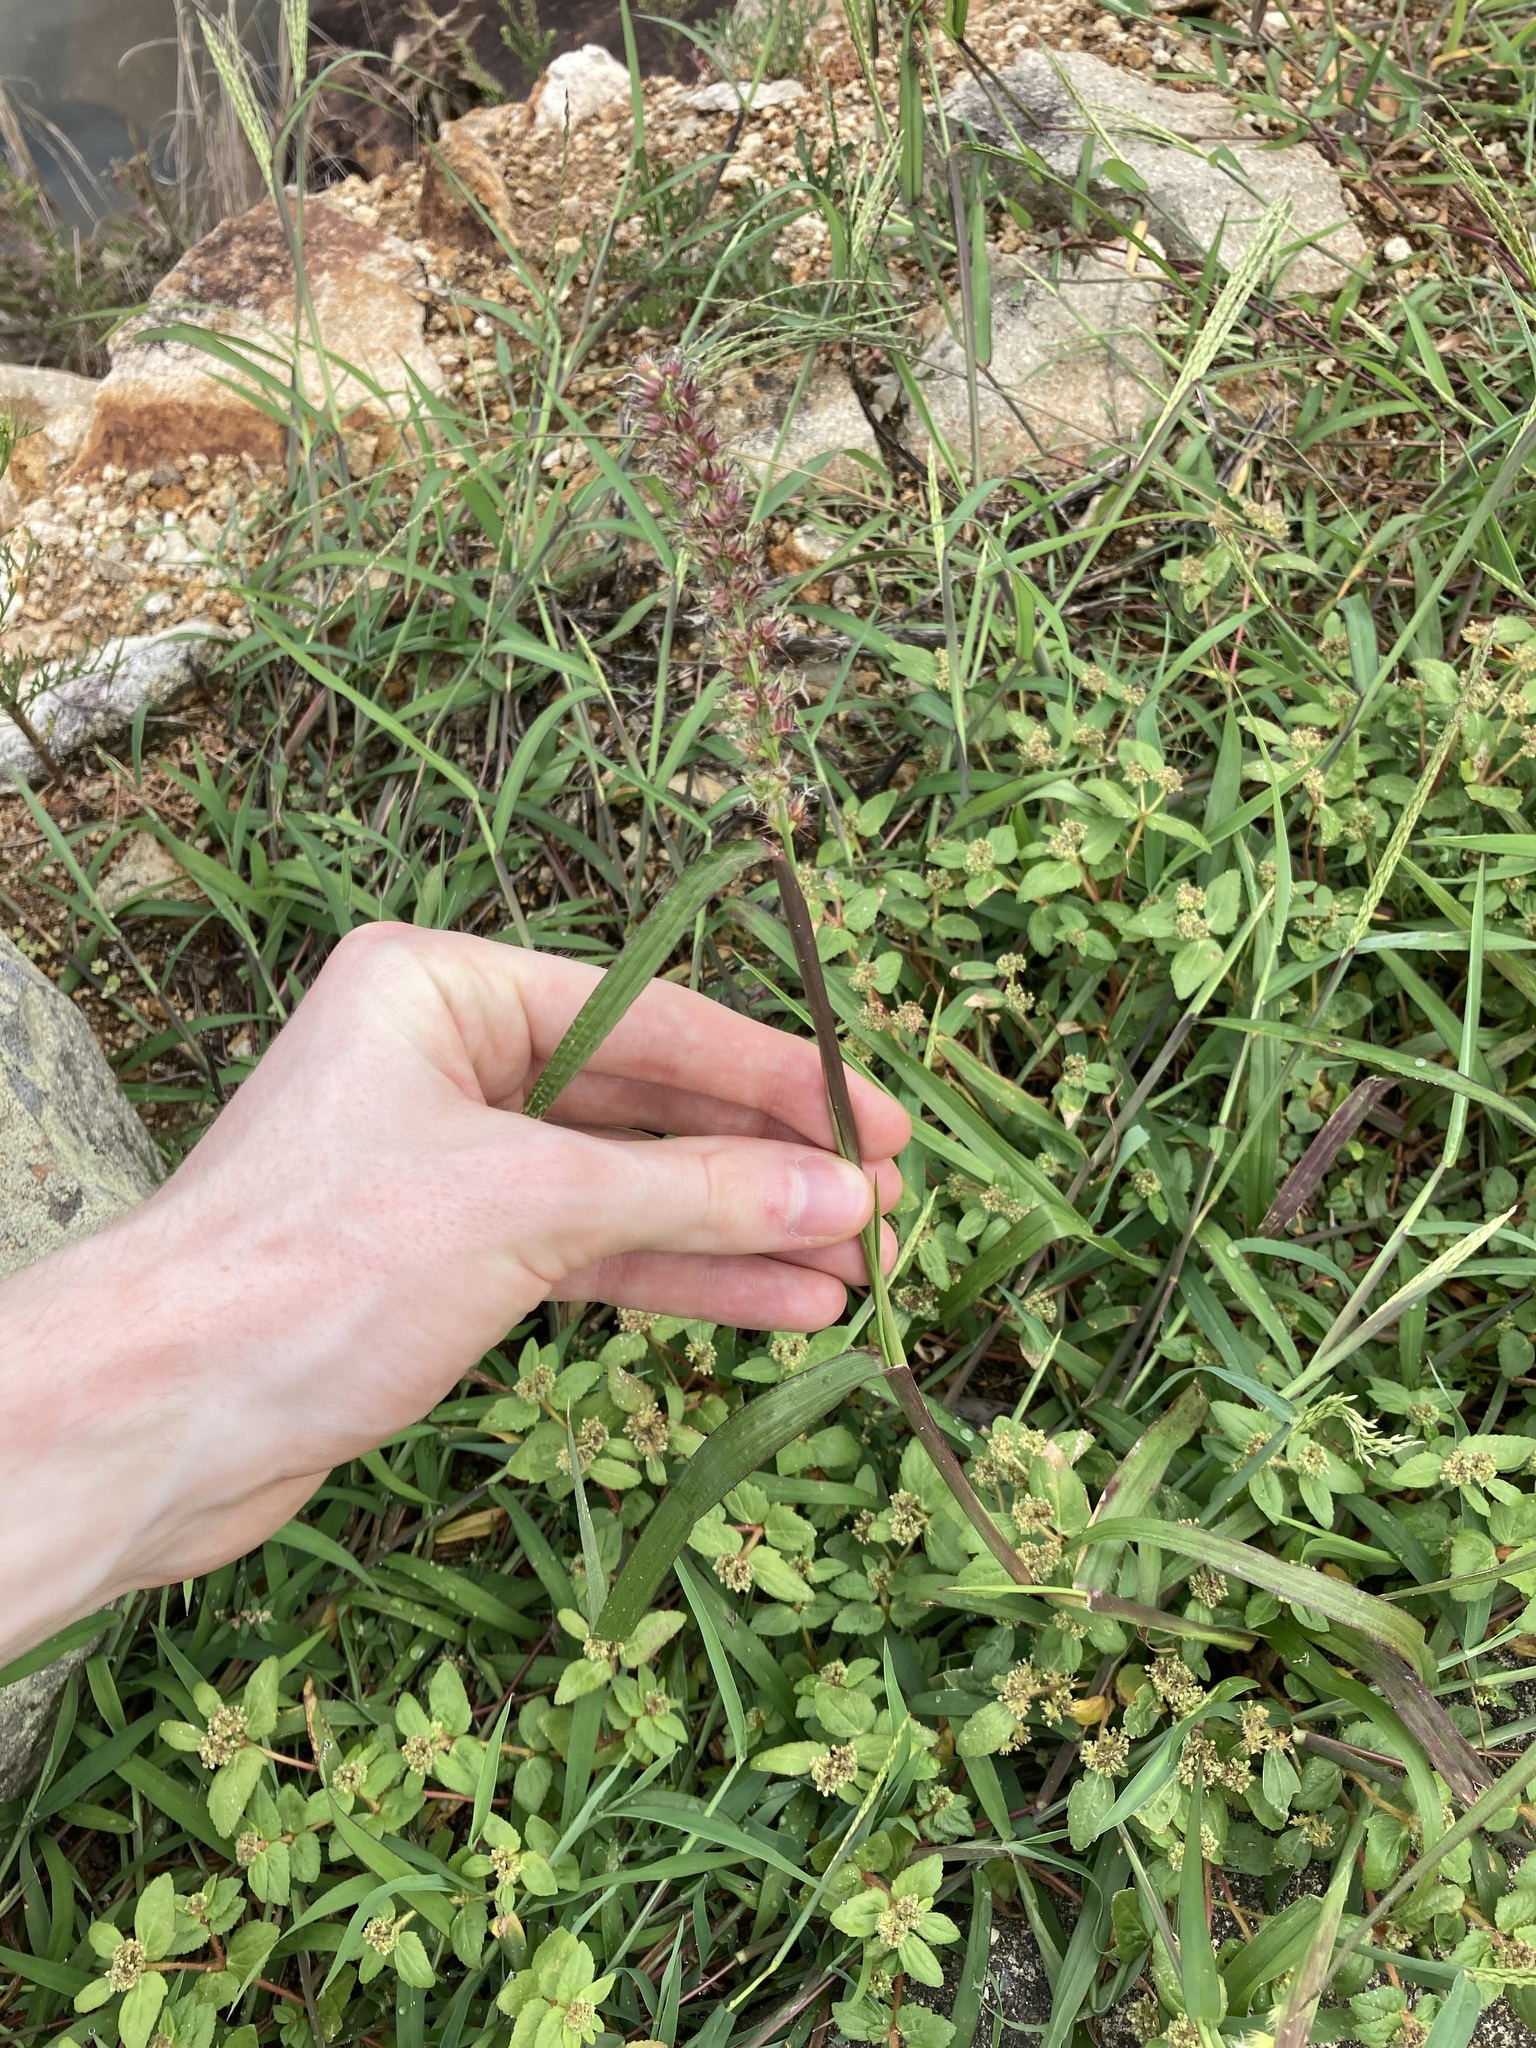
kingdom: Plantae
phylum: Tracheophyta
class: Liliopsida
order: Poales
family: Poaceae
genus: Cenchrus
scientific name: Cenchrus echinatus
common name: Southern sandbur
